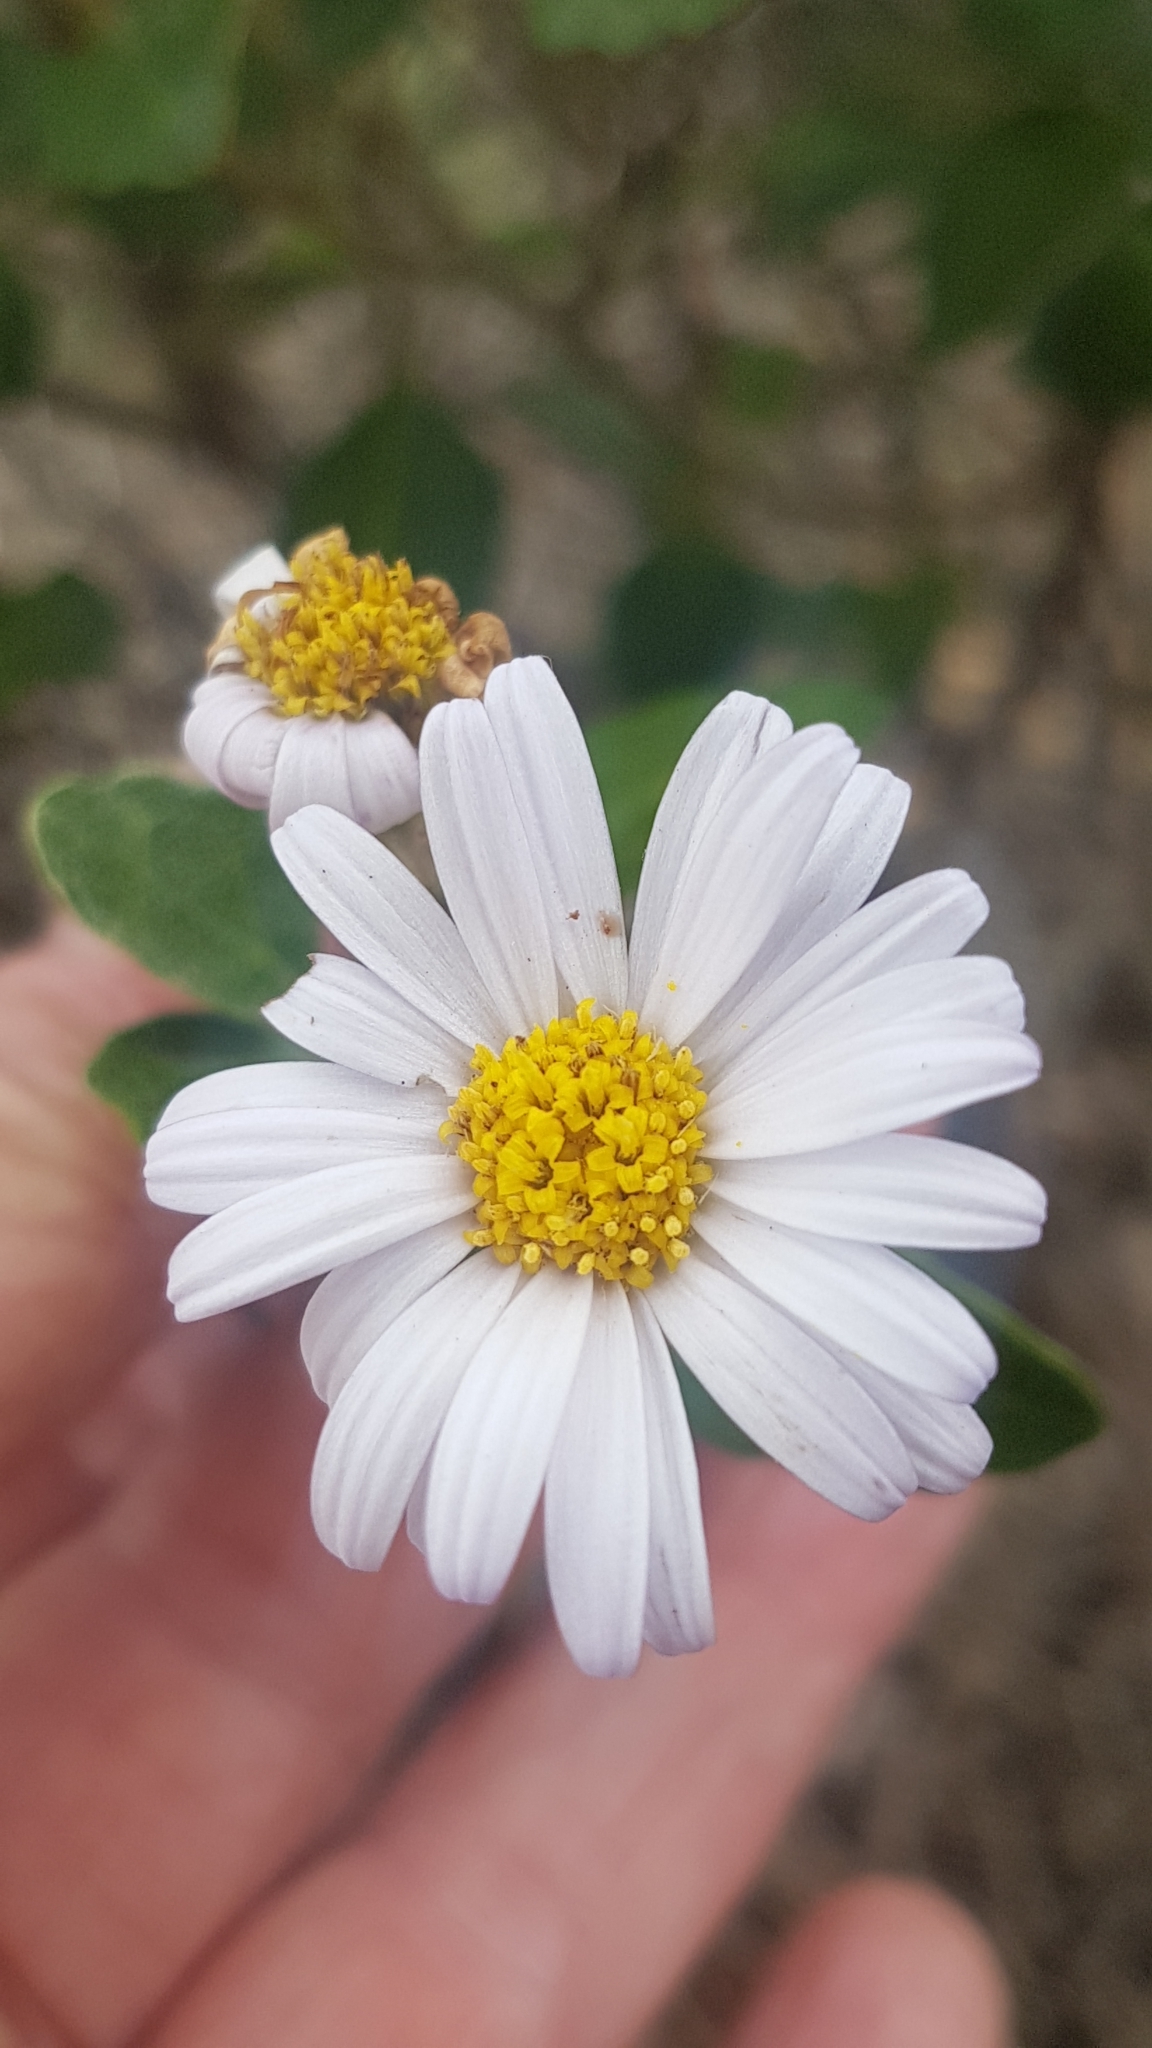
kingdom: Plantae
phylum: Tracheophyta
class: Magnoliopsida
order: Asterales
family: Asteraceae
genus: Olearia
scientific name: Olearia tomentosa
